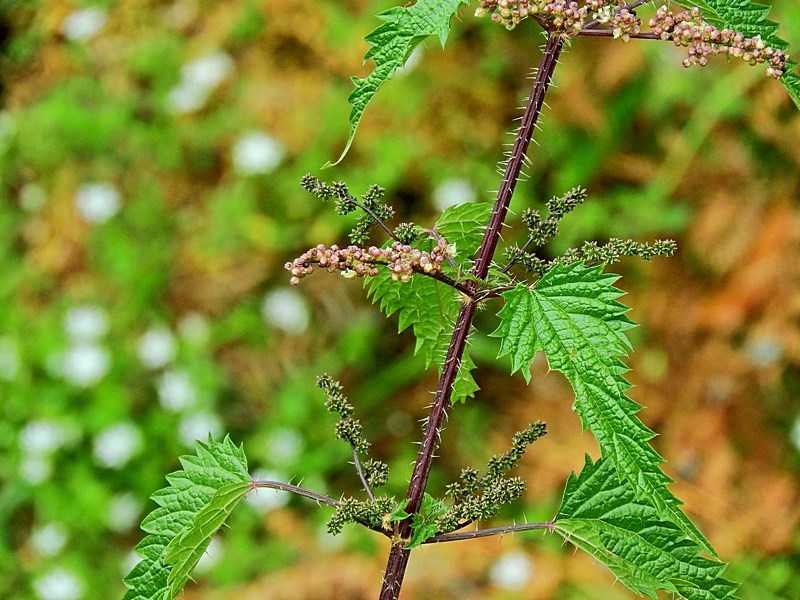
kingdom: Plantae
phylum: Tracheophyta
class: Magnoliopsida
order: Rosales
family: Urticaceae
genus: Urtica
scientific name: Urtica incisa
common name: Scrub nettle
